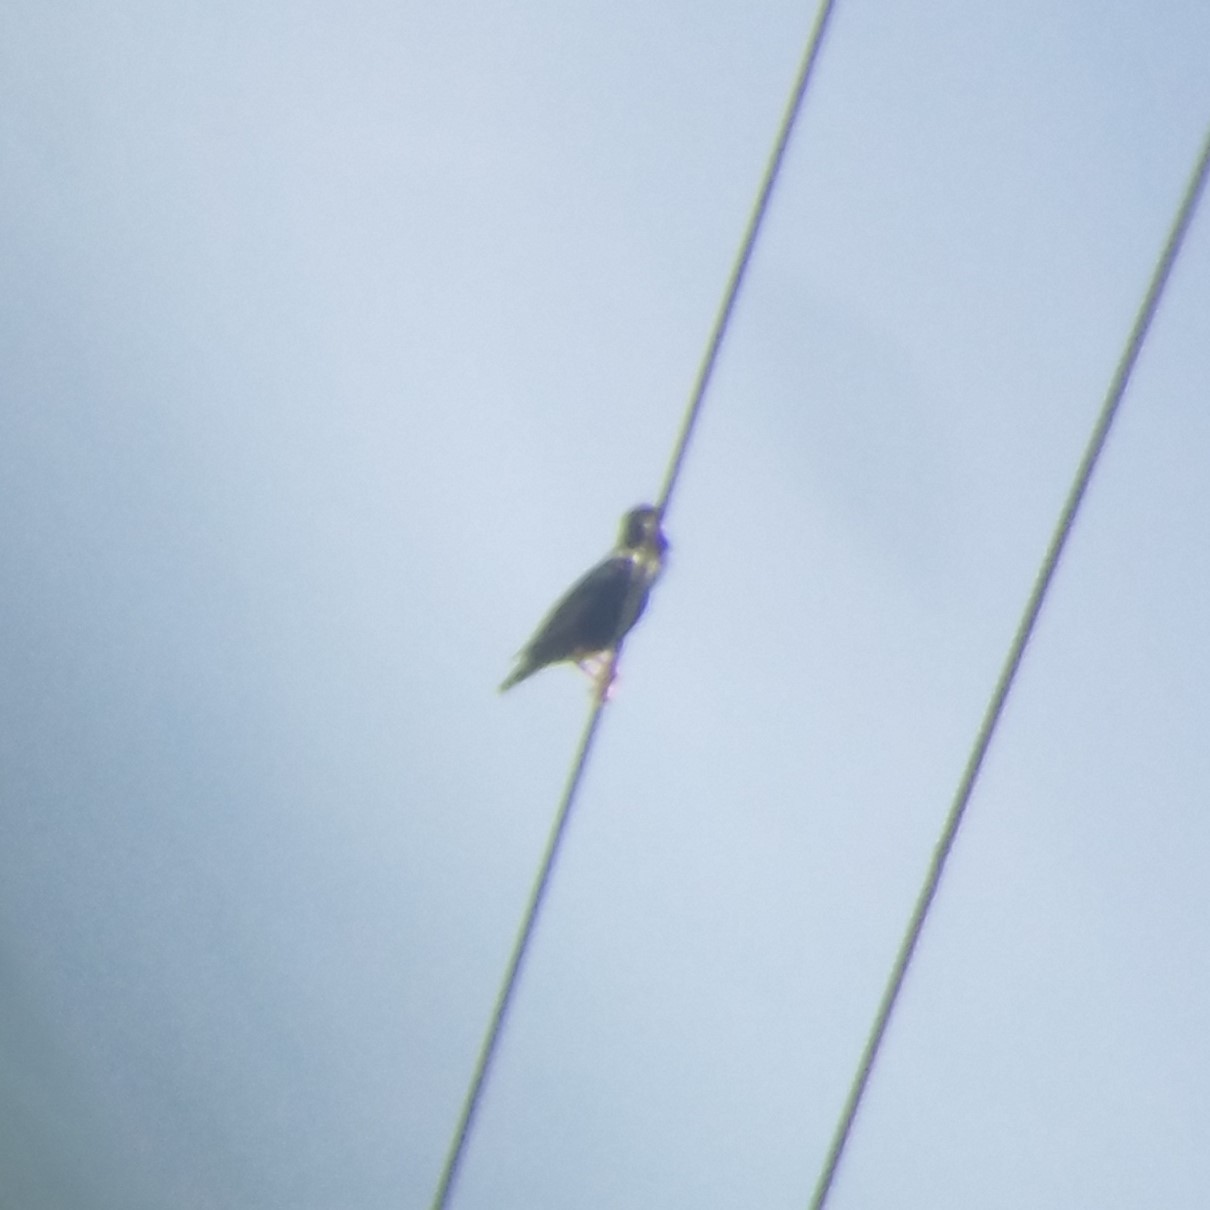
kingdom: Animalia
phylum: Chordata
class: Aves
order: Passeriformes
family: Sturnidae
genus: Sturnus
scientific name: Sturnus vulgaris
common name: Common starling
